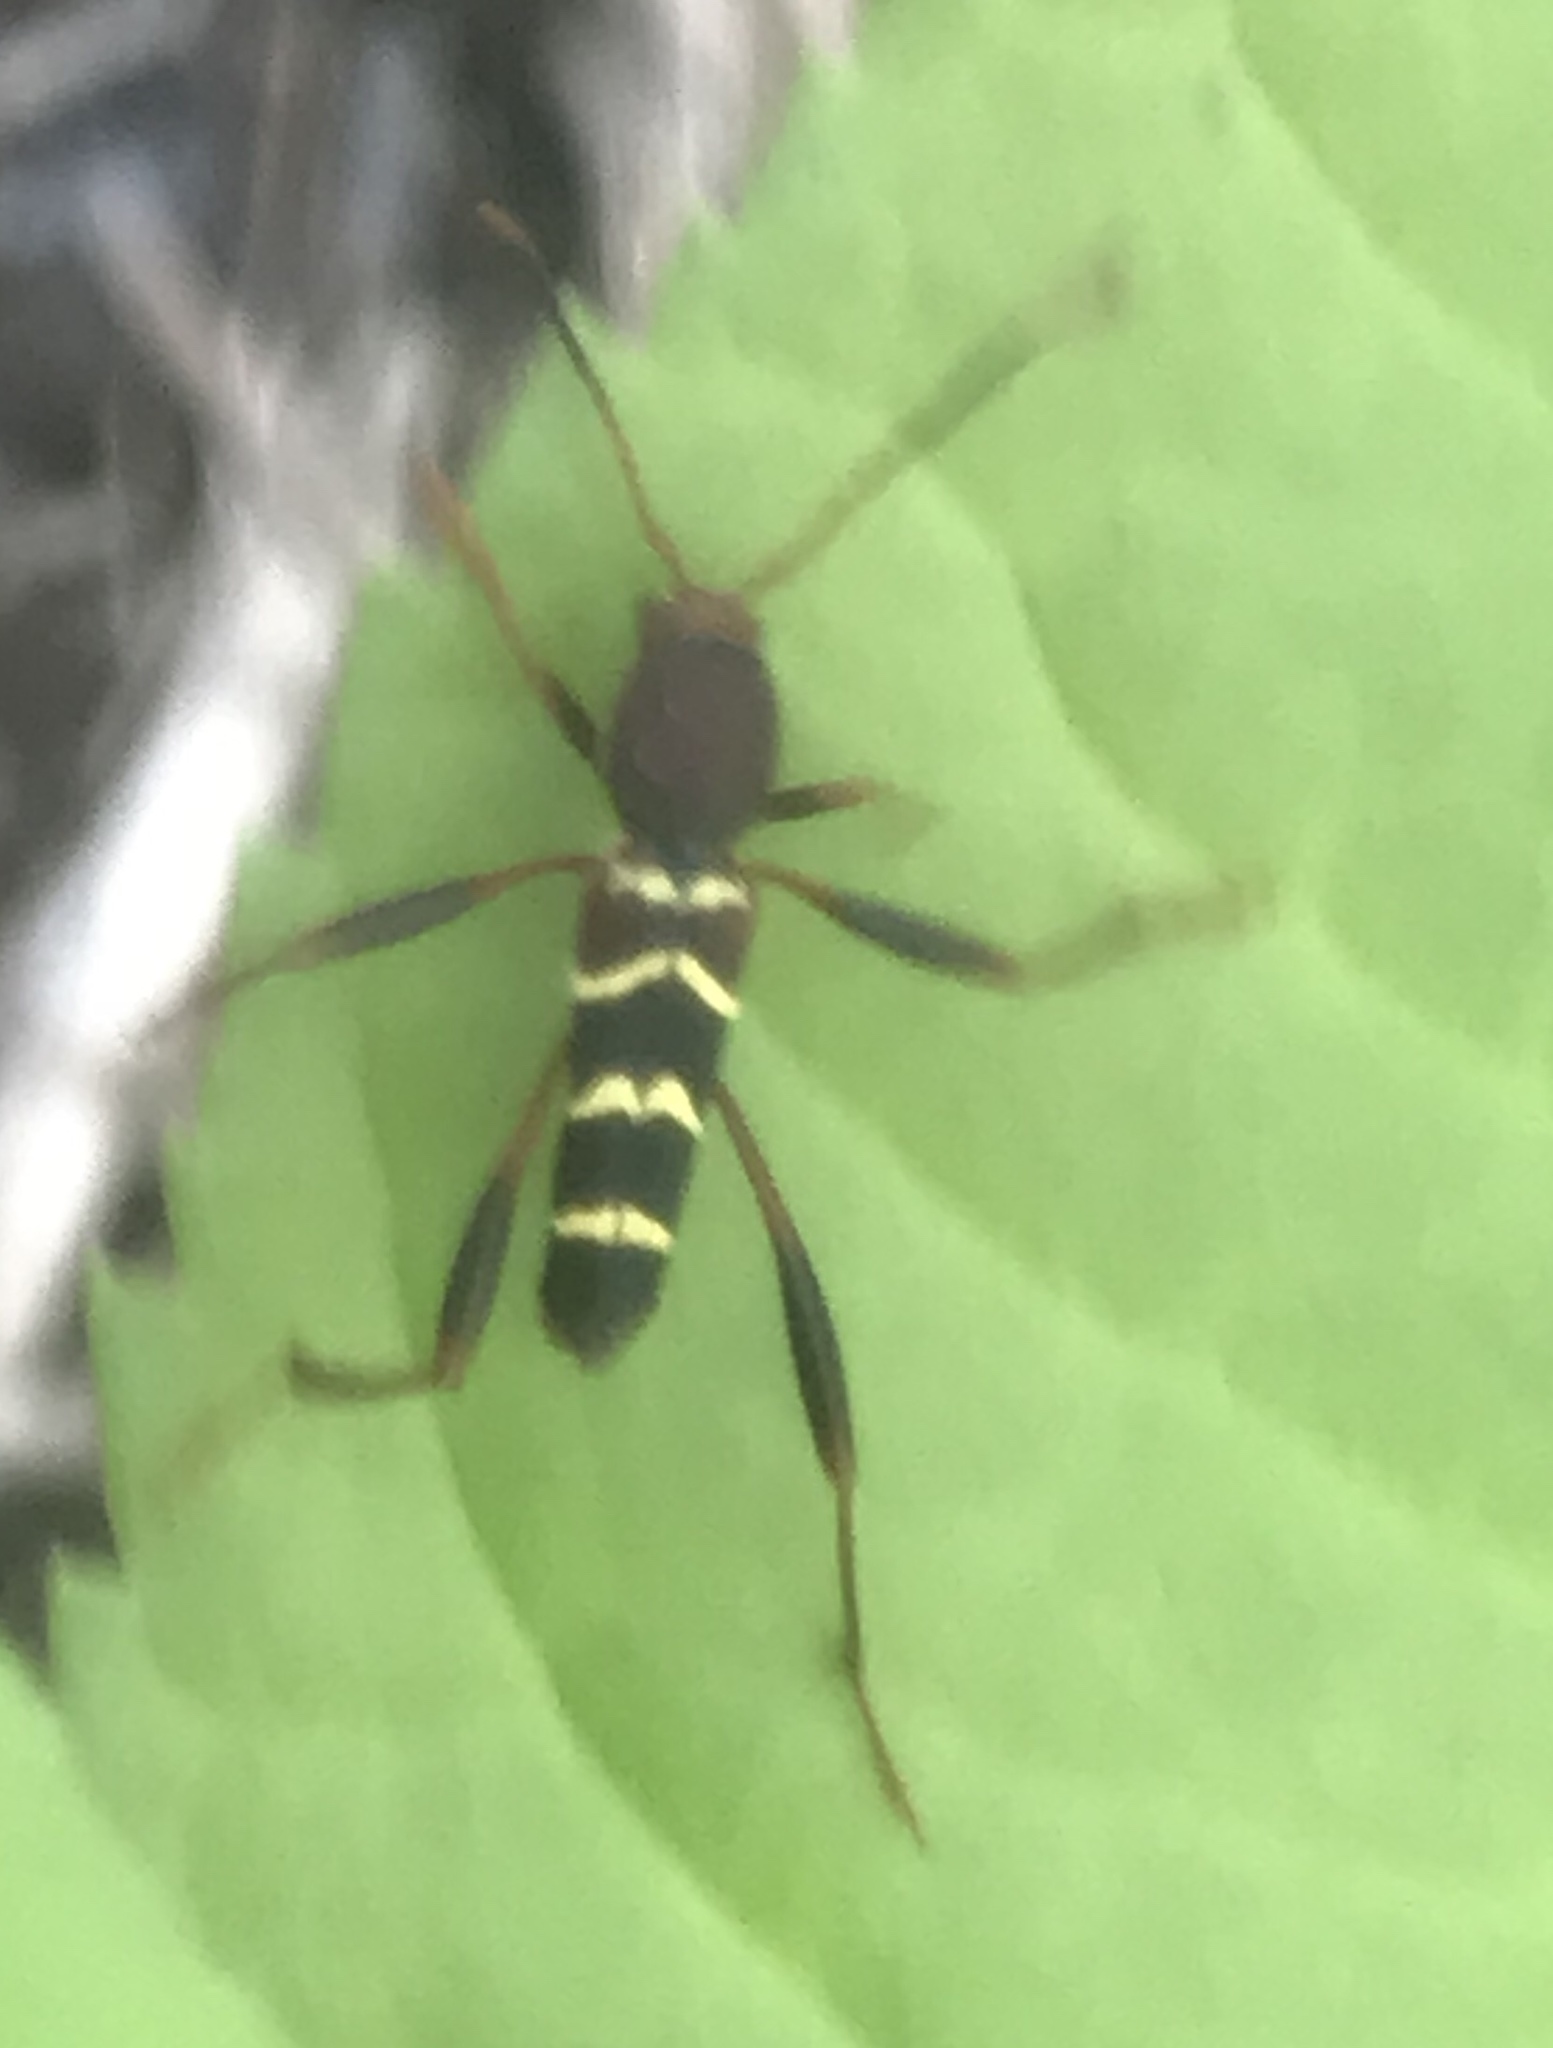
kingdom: Animalia
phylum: Arthropoda
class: Insecta
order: Coleoptera
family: Cerambycidae
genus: Neoclytus
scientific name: Neoclytus acuminatus
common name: Read-headed ash borer
